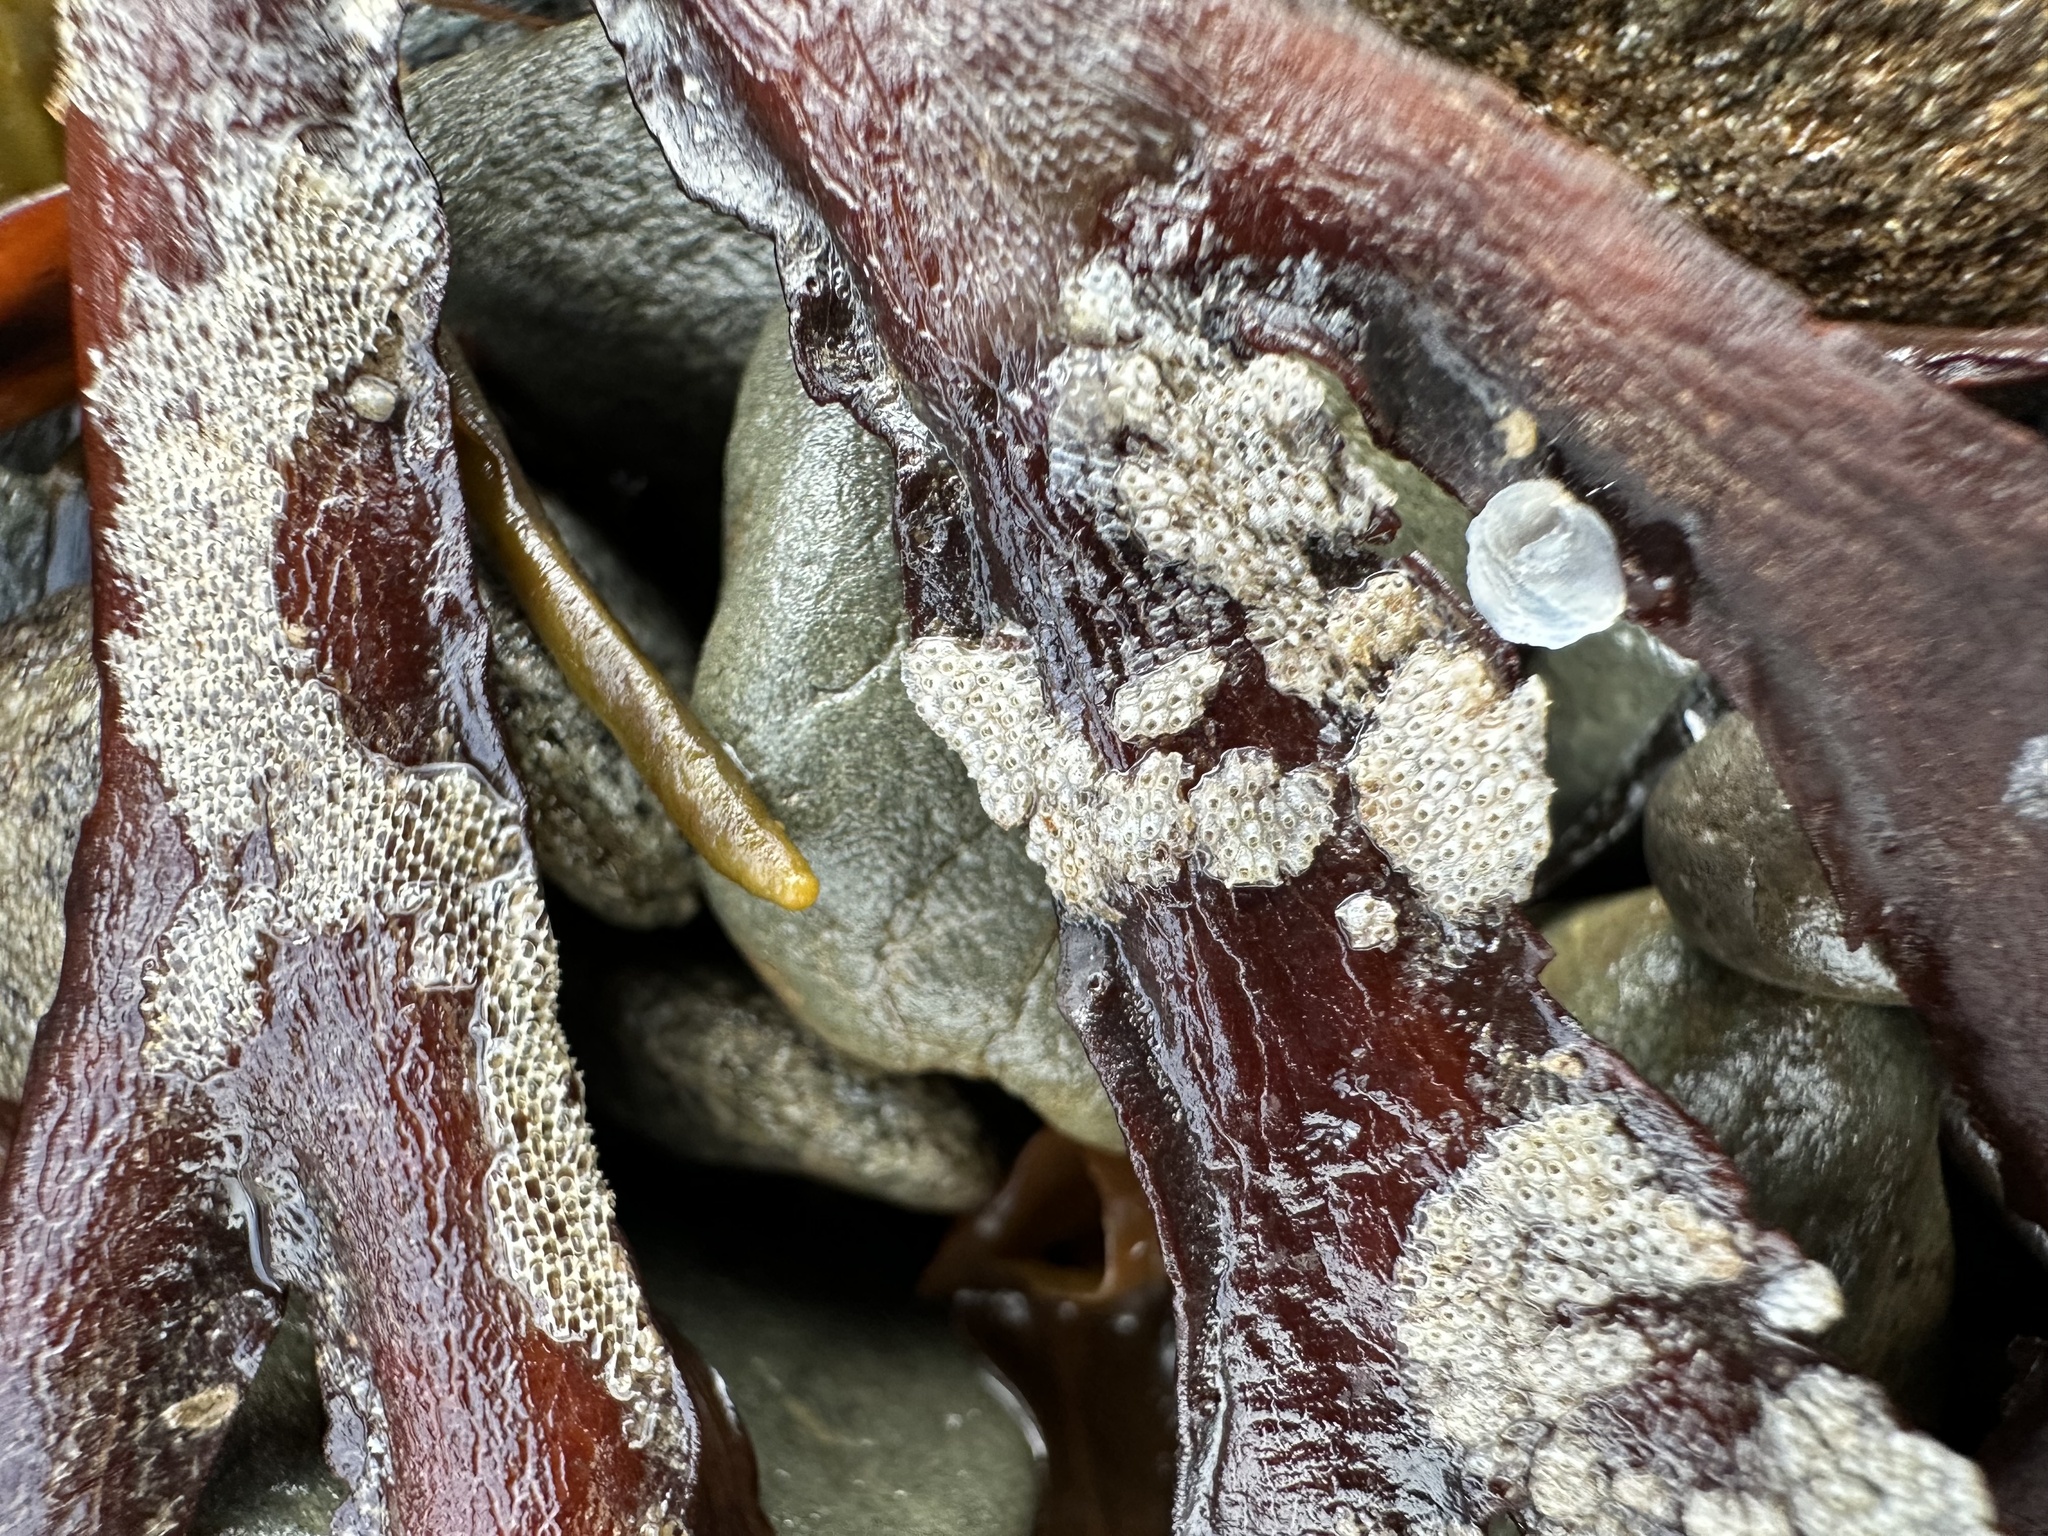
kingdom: Animalia
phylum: Bryozoa
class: Gymnolaemata
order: Cheilostomatida
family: Cryptosulidae
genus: Cryptosula
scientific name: Cryptosula pallasiana
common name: Red crust
